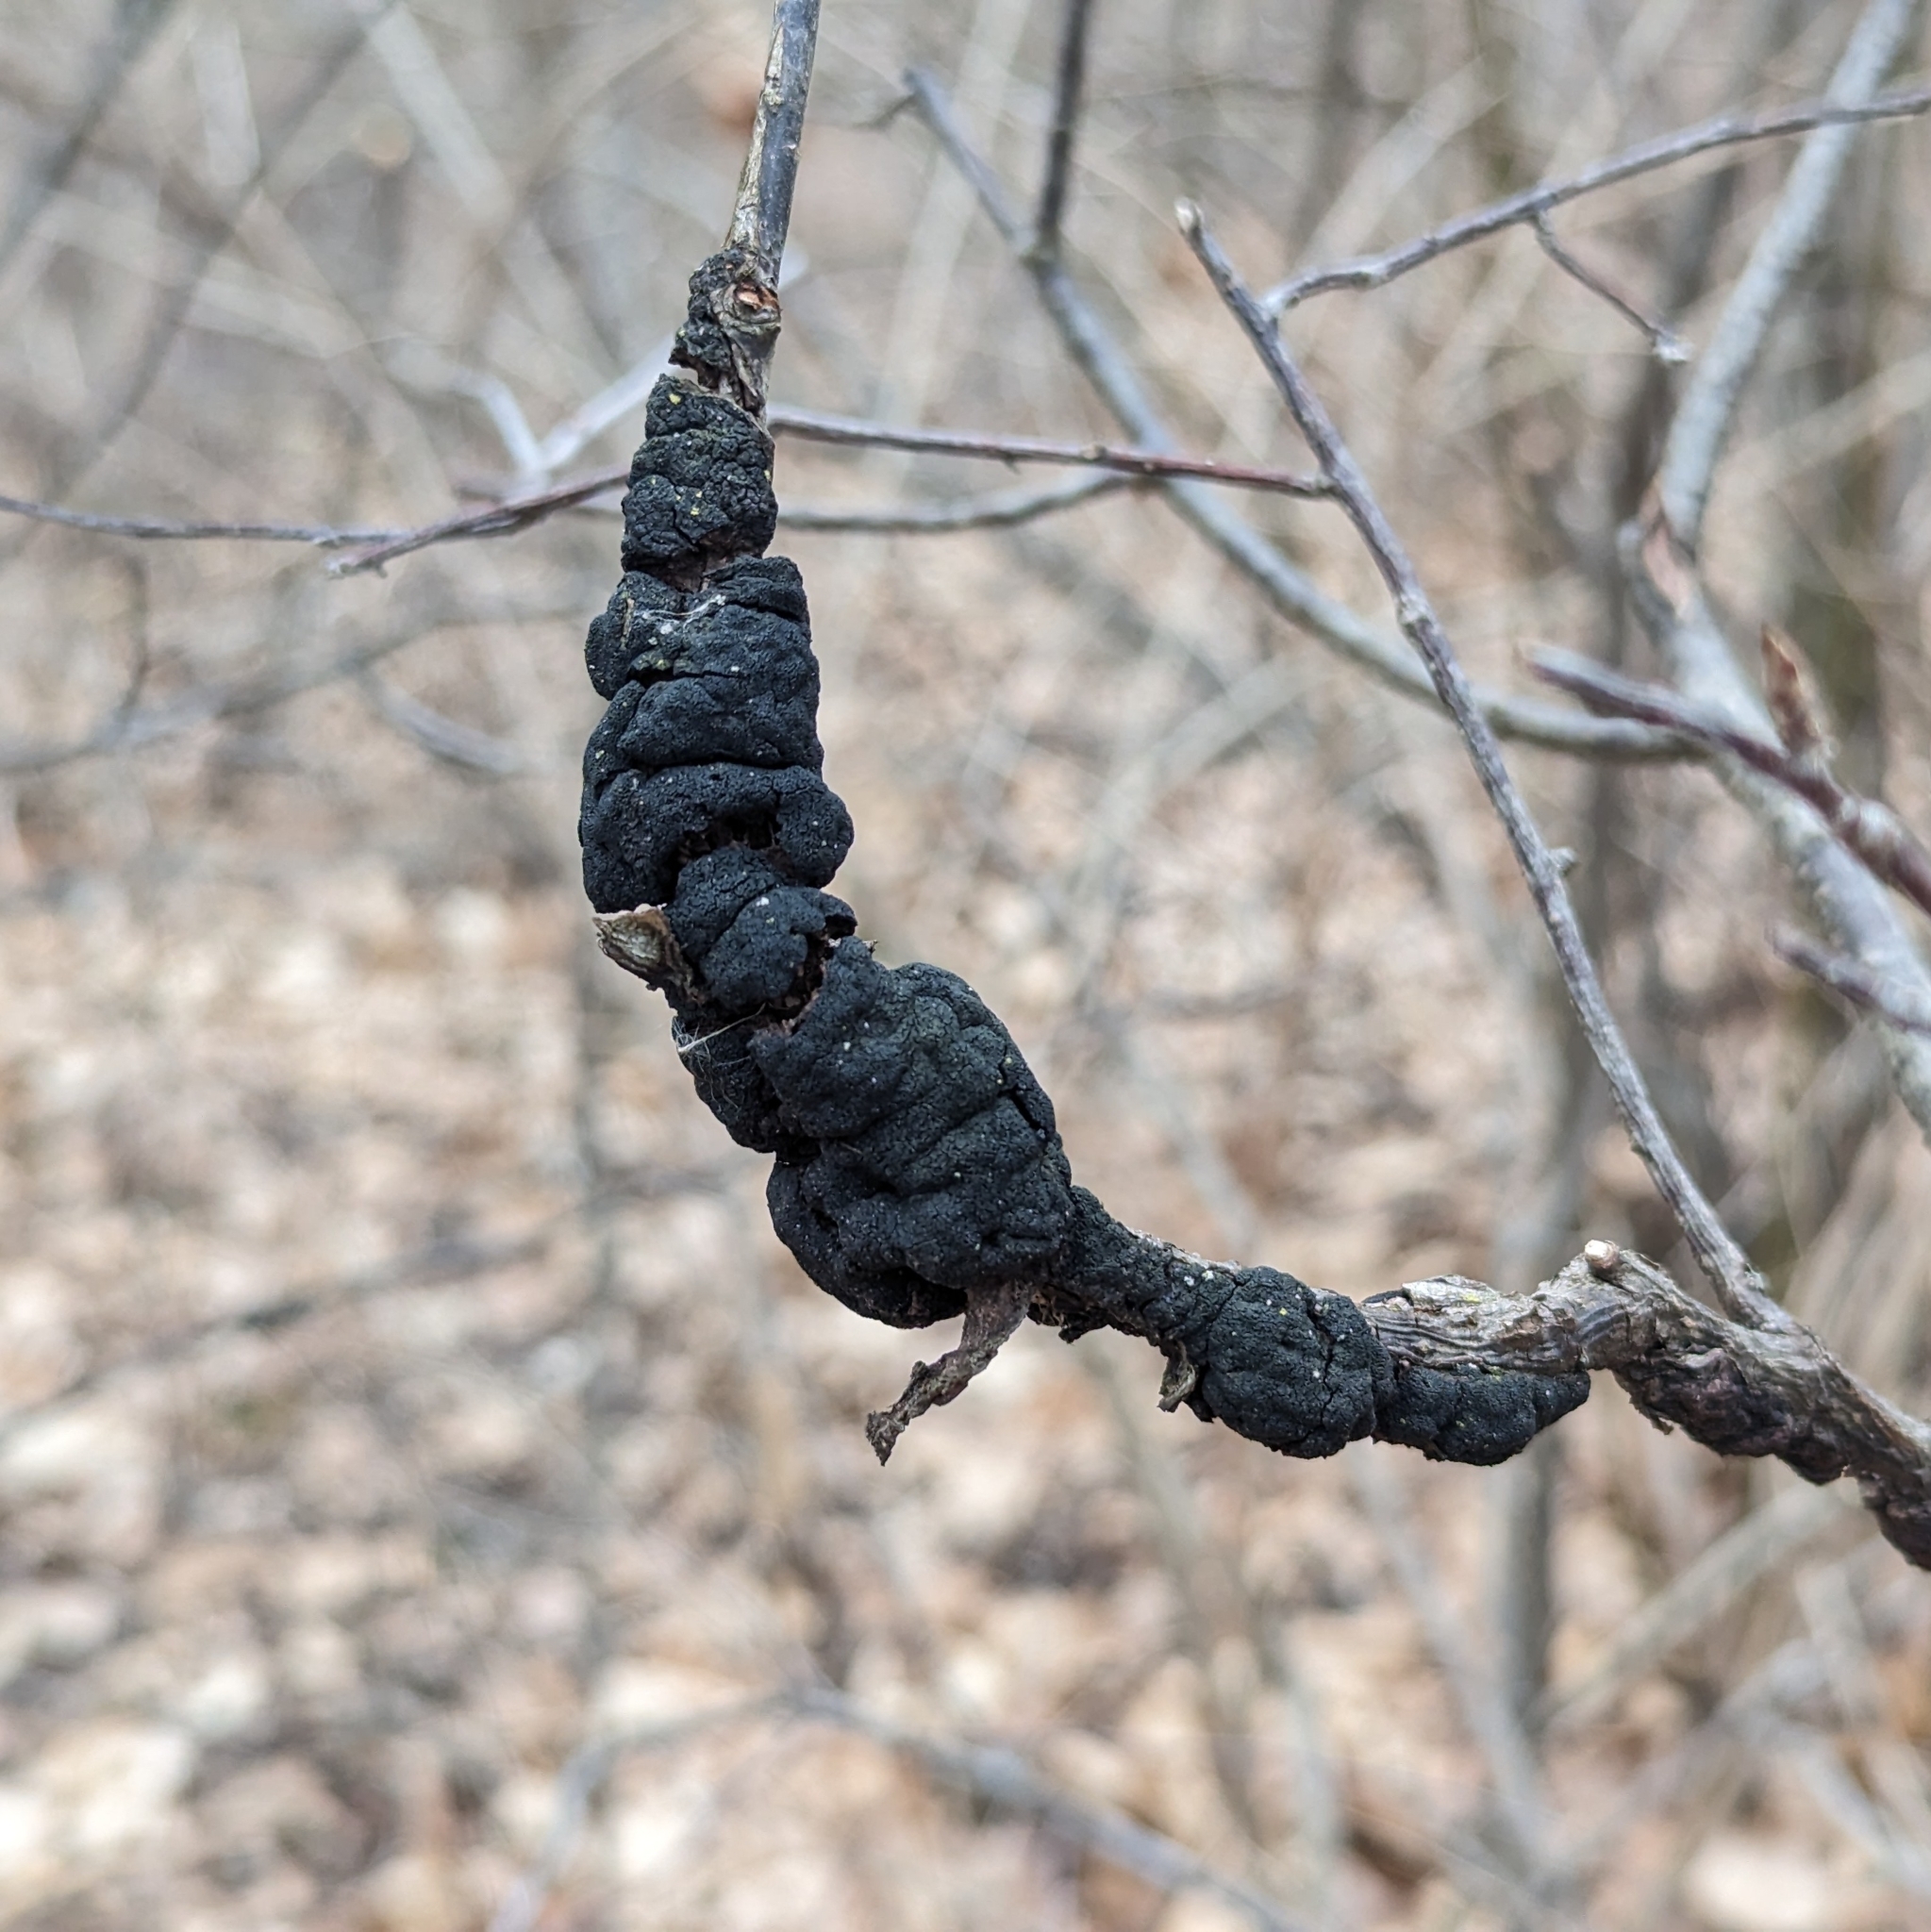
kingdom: Fungi
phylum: Ascomycota
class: Dothideomycetes
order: Venturiales
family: Venturiaceae
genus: Apiosporina
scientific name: Apiosporina morbosa
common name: Black knot
